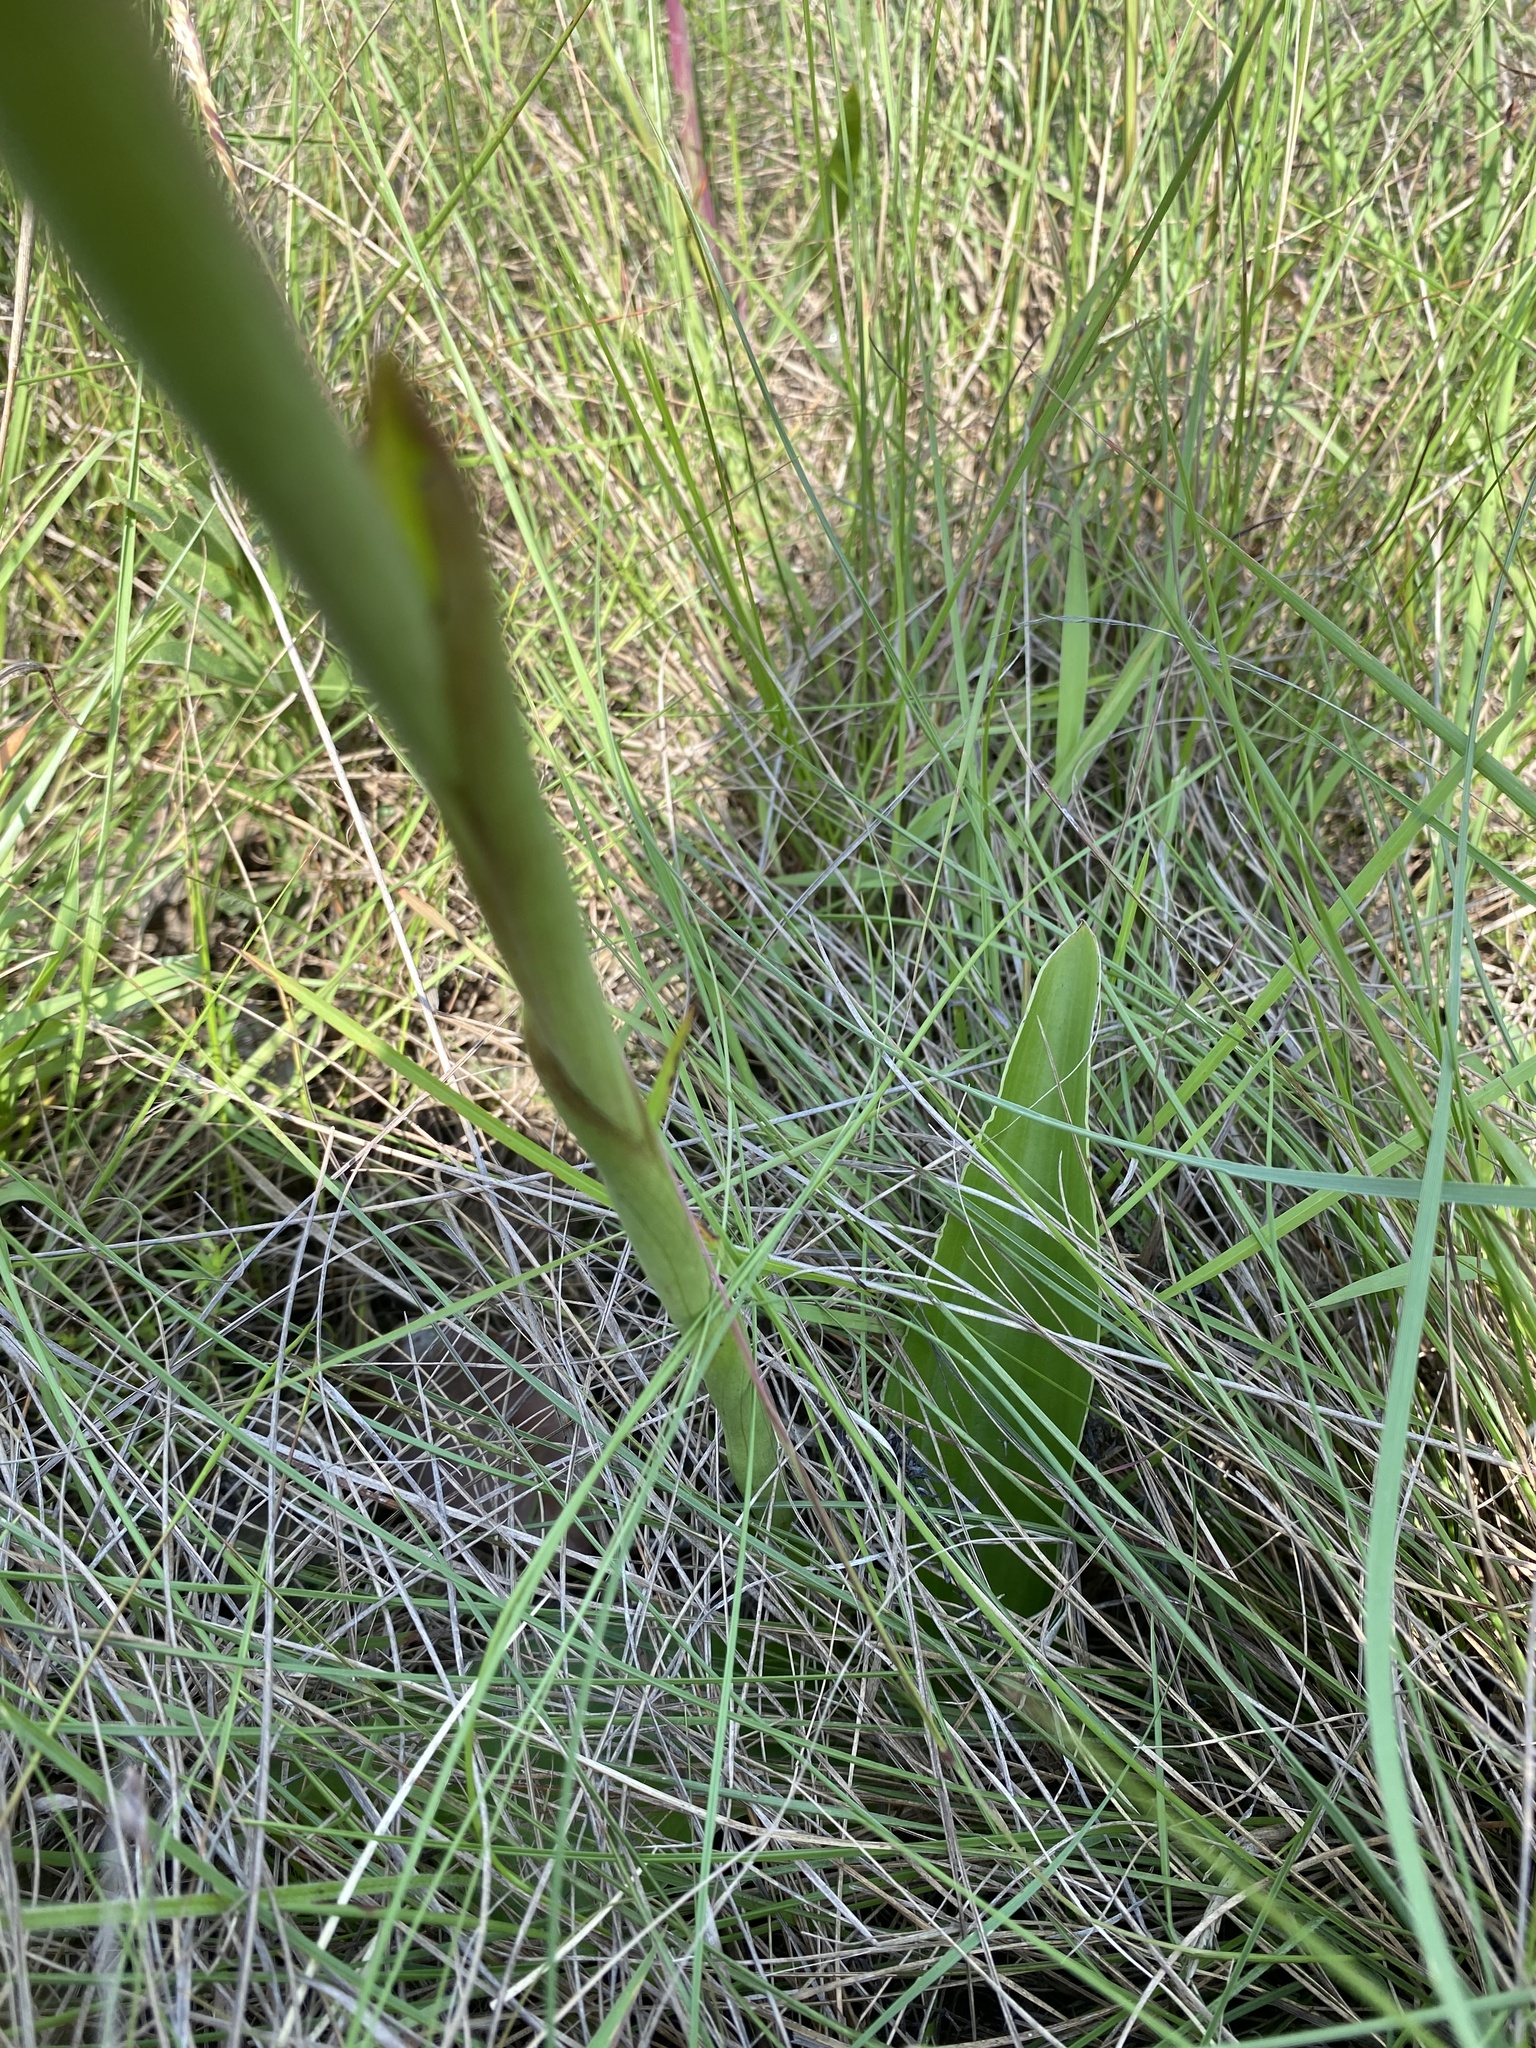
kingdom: Plantae
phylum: Tracheophyta
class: Liliopsida
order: Asparagales
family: Orchidaceae
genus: Satyrium
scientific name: Satyrium longicauda
